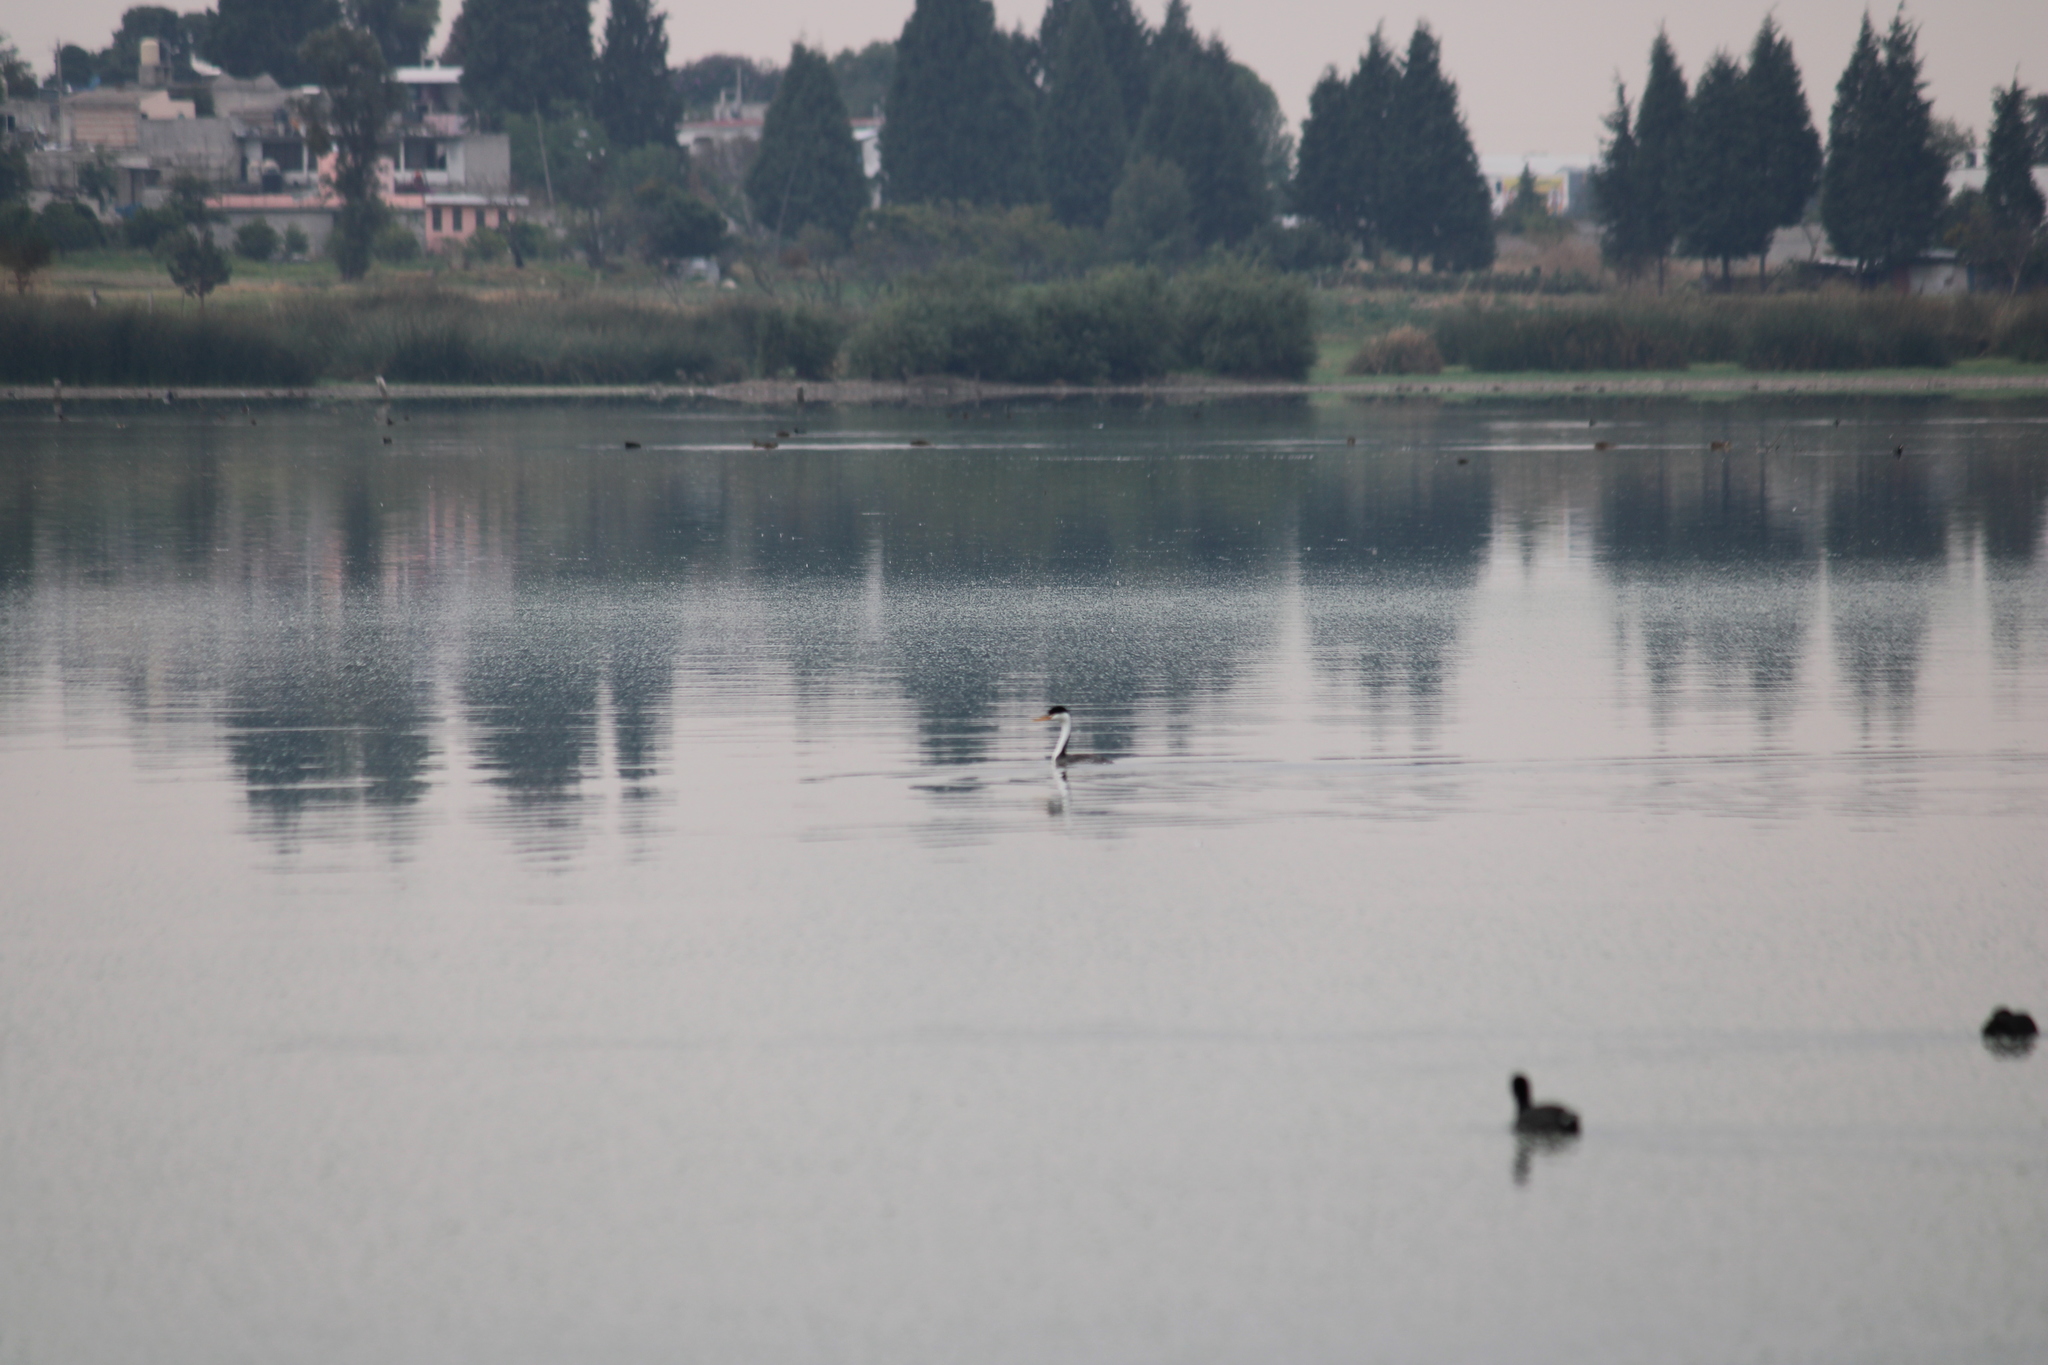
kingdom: Animalia
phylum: Chordata
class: Aves
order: Podicipediformes
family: Podicipedidae
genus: Aechmophorus
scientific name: Aechmophorus clarkii
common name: Clark's grebe
